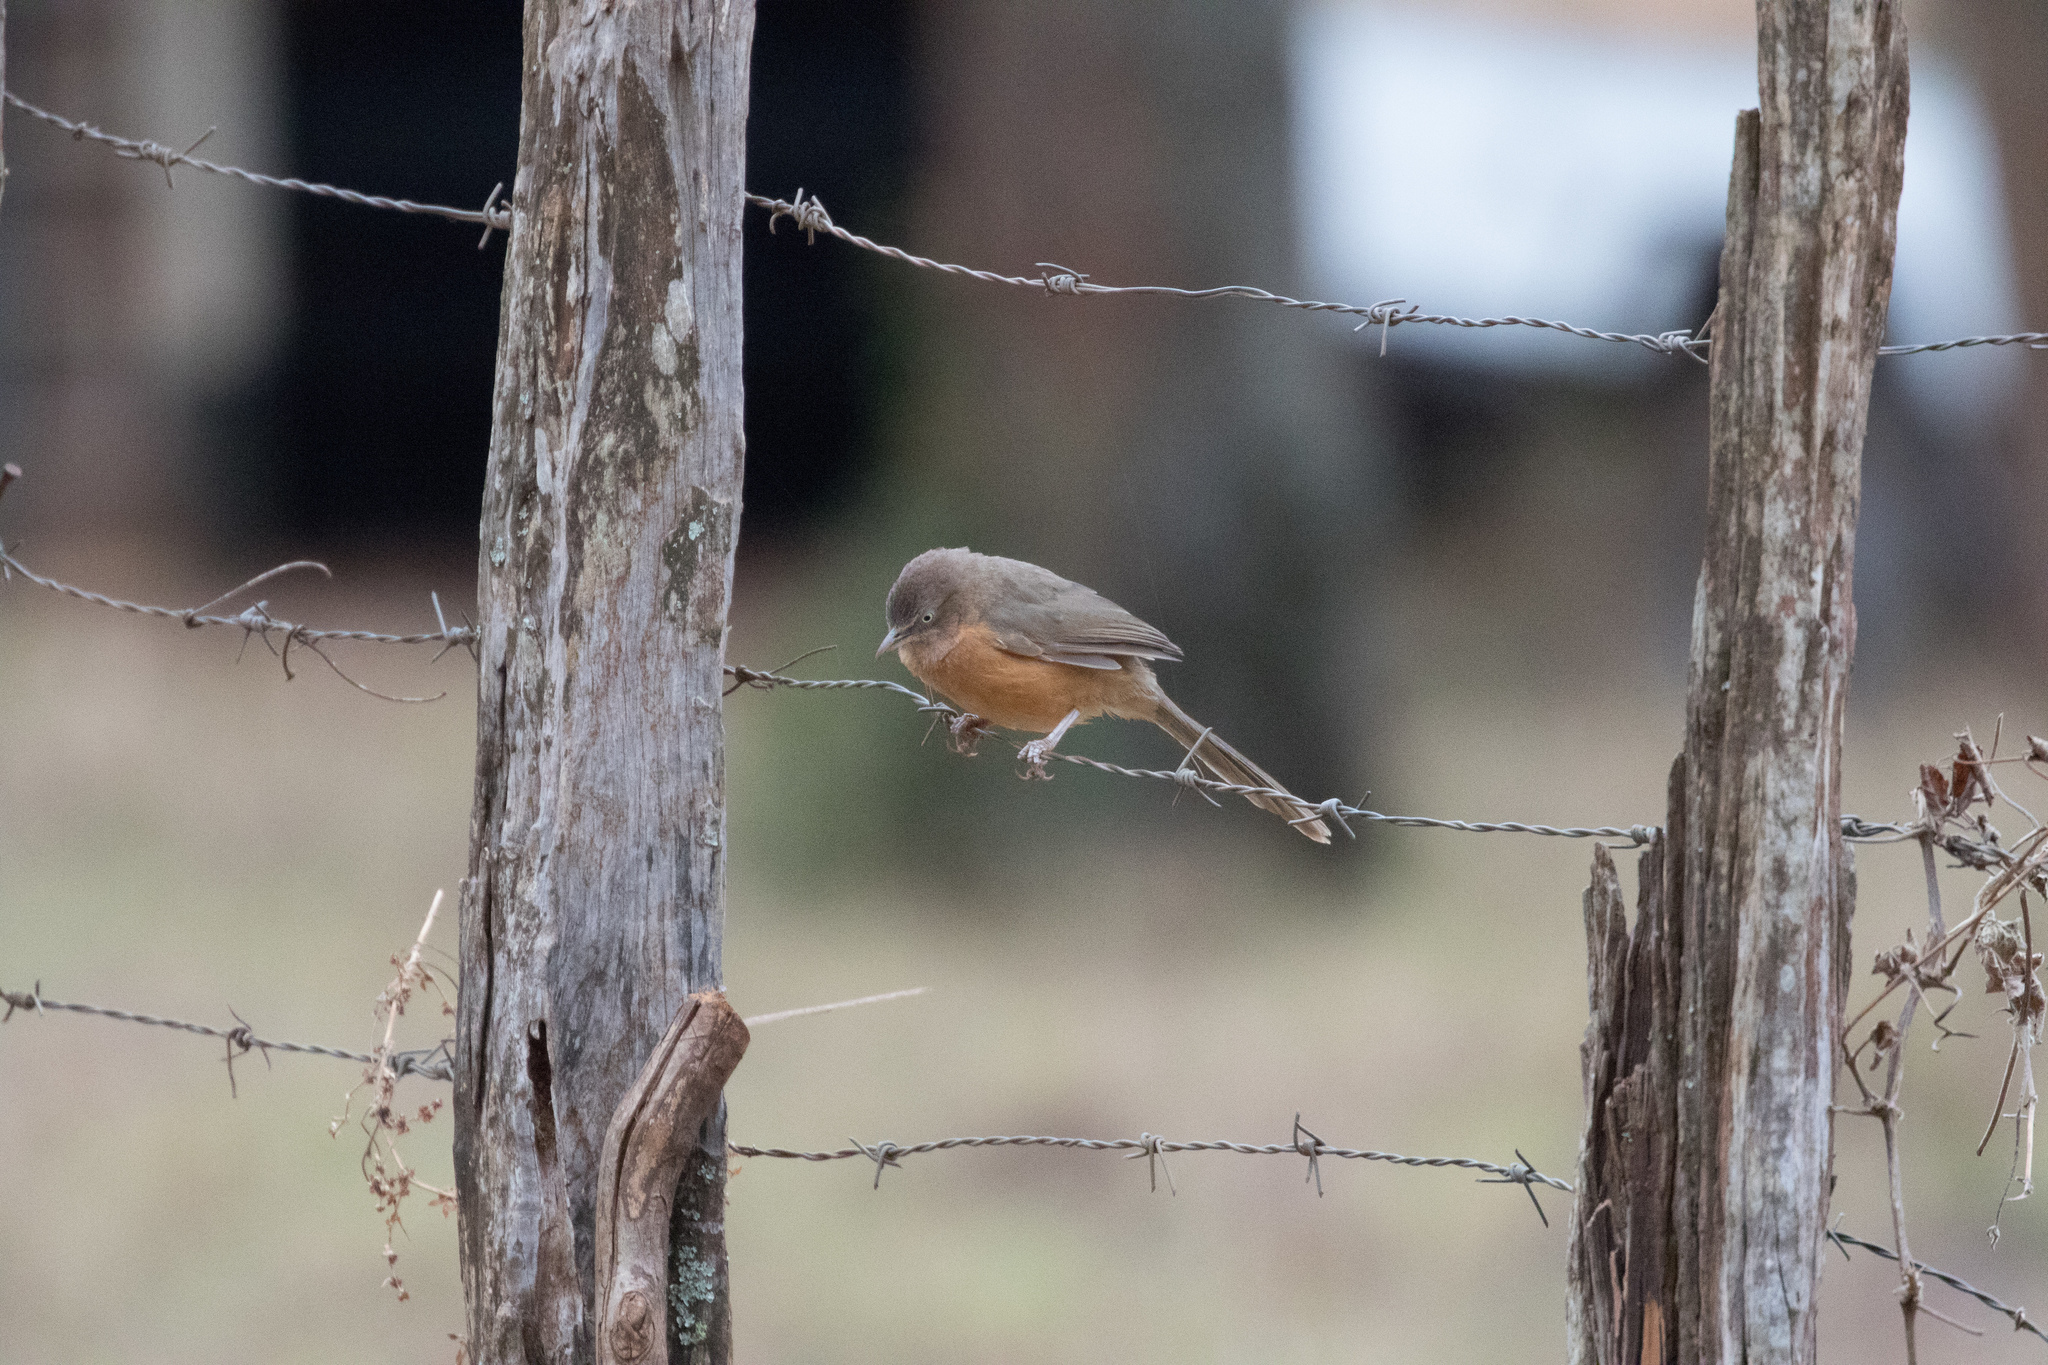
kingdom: Animalia
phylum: Chordata
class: Aves
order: Passeriformes
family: Leiothrichidae
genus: Turdoides
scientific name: Turdoides rubiginosa
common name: Rufous chatterer
